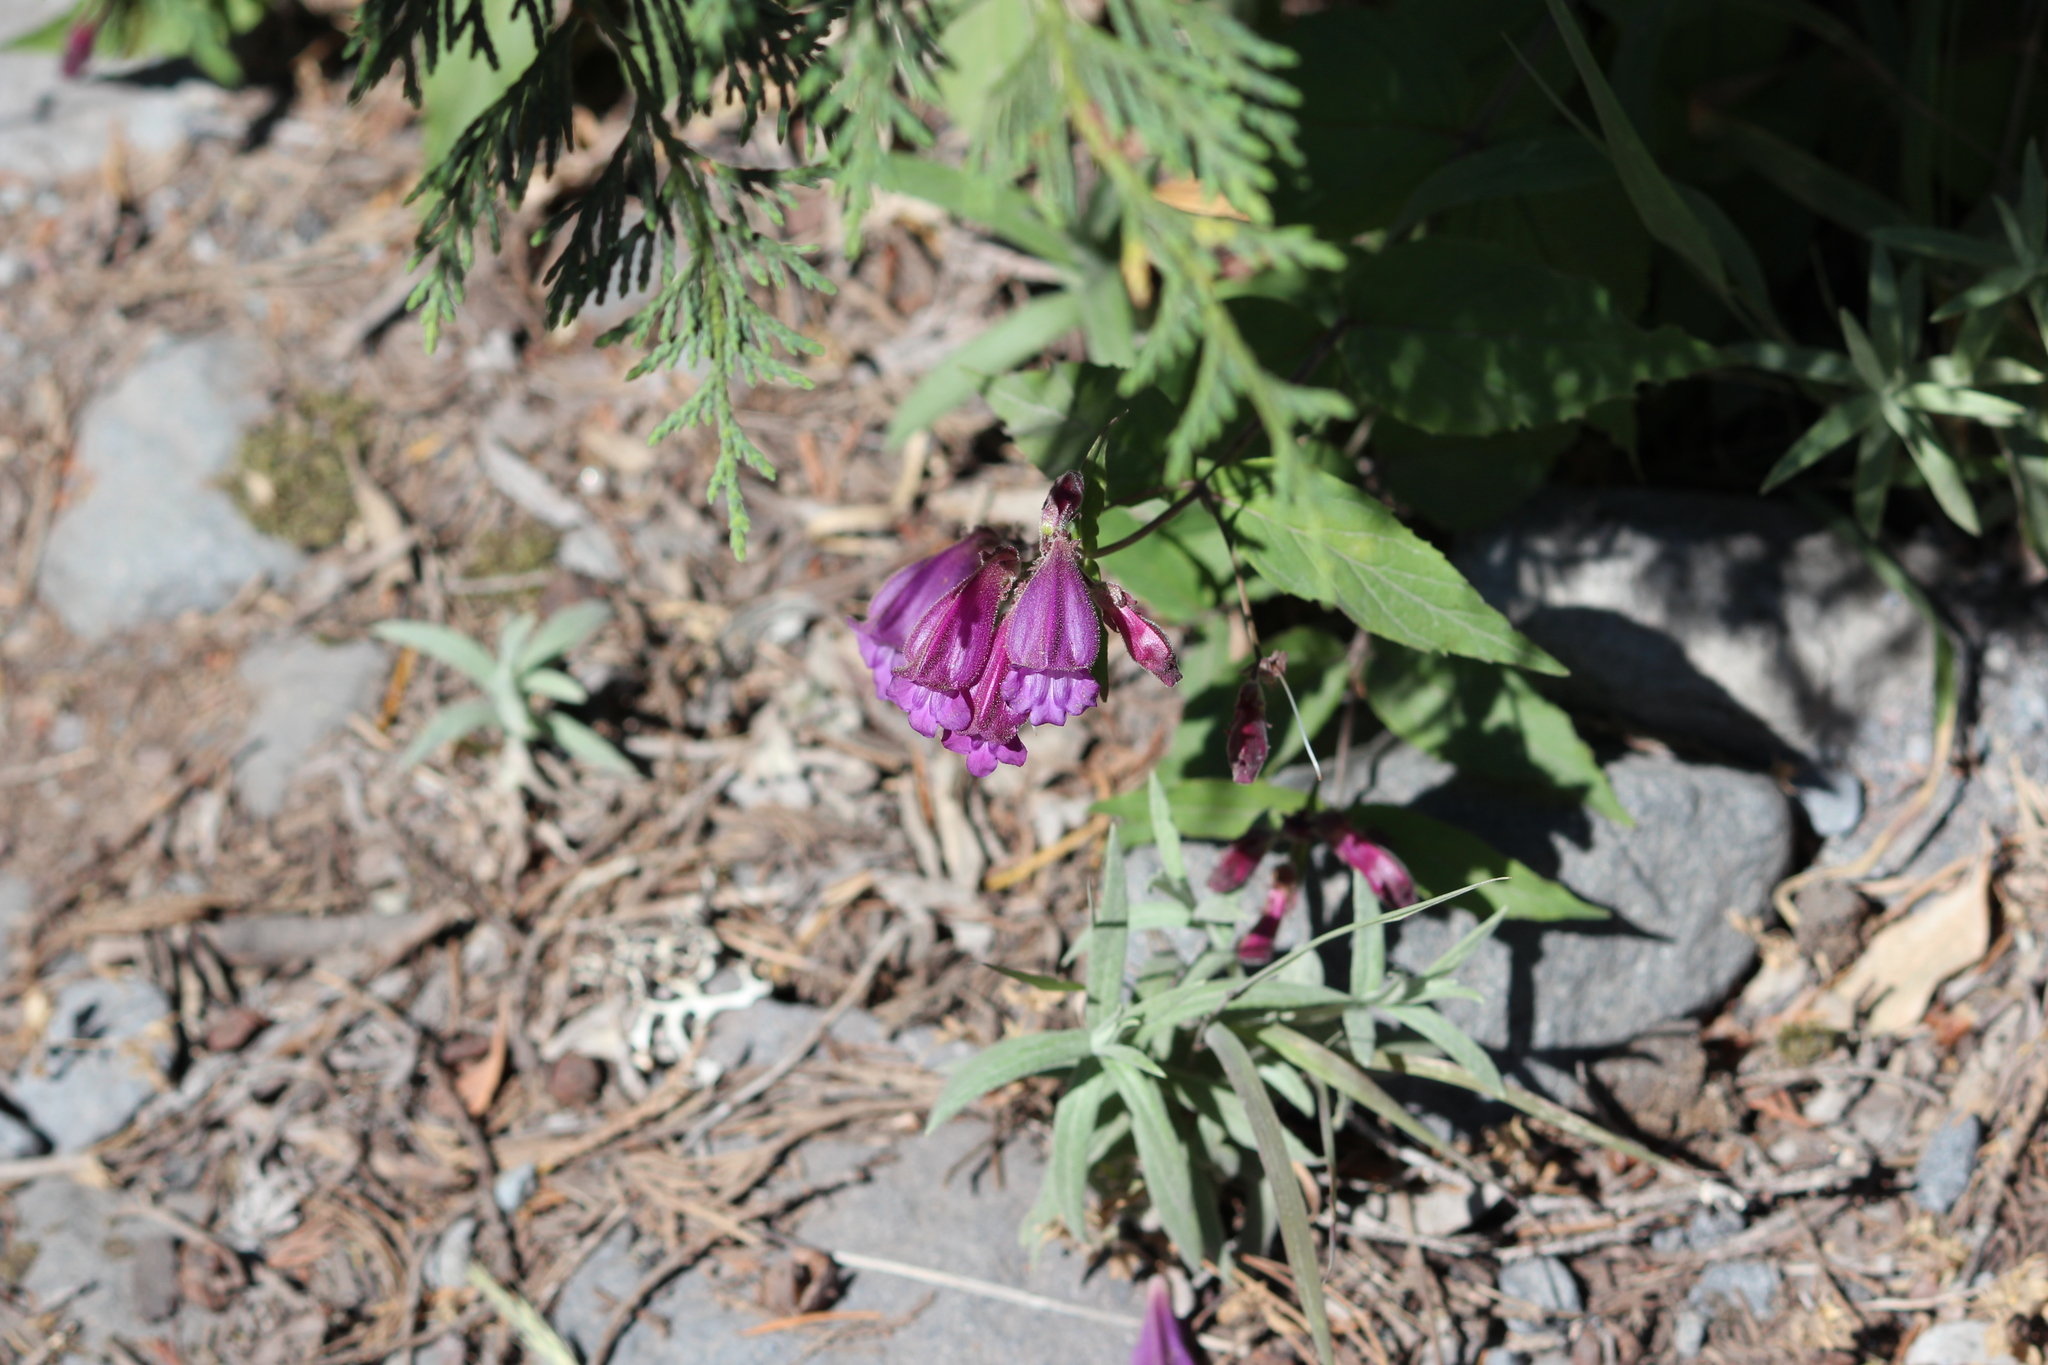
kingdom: Plantae
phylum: Tracheophyta
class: Magnoliopsida
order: Lamiales
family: Plantaginaceae
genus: Nothochelone
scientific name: Nothochelone nemorosa
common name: Woodland beardtongue
